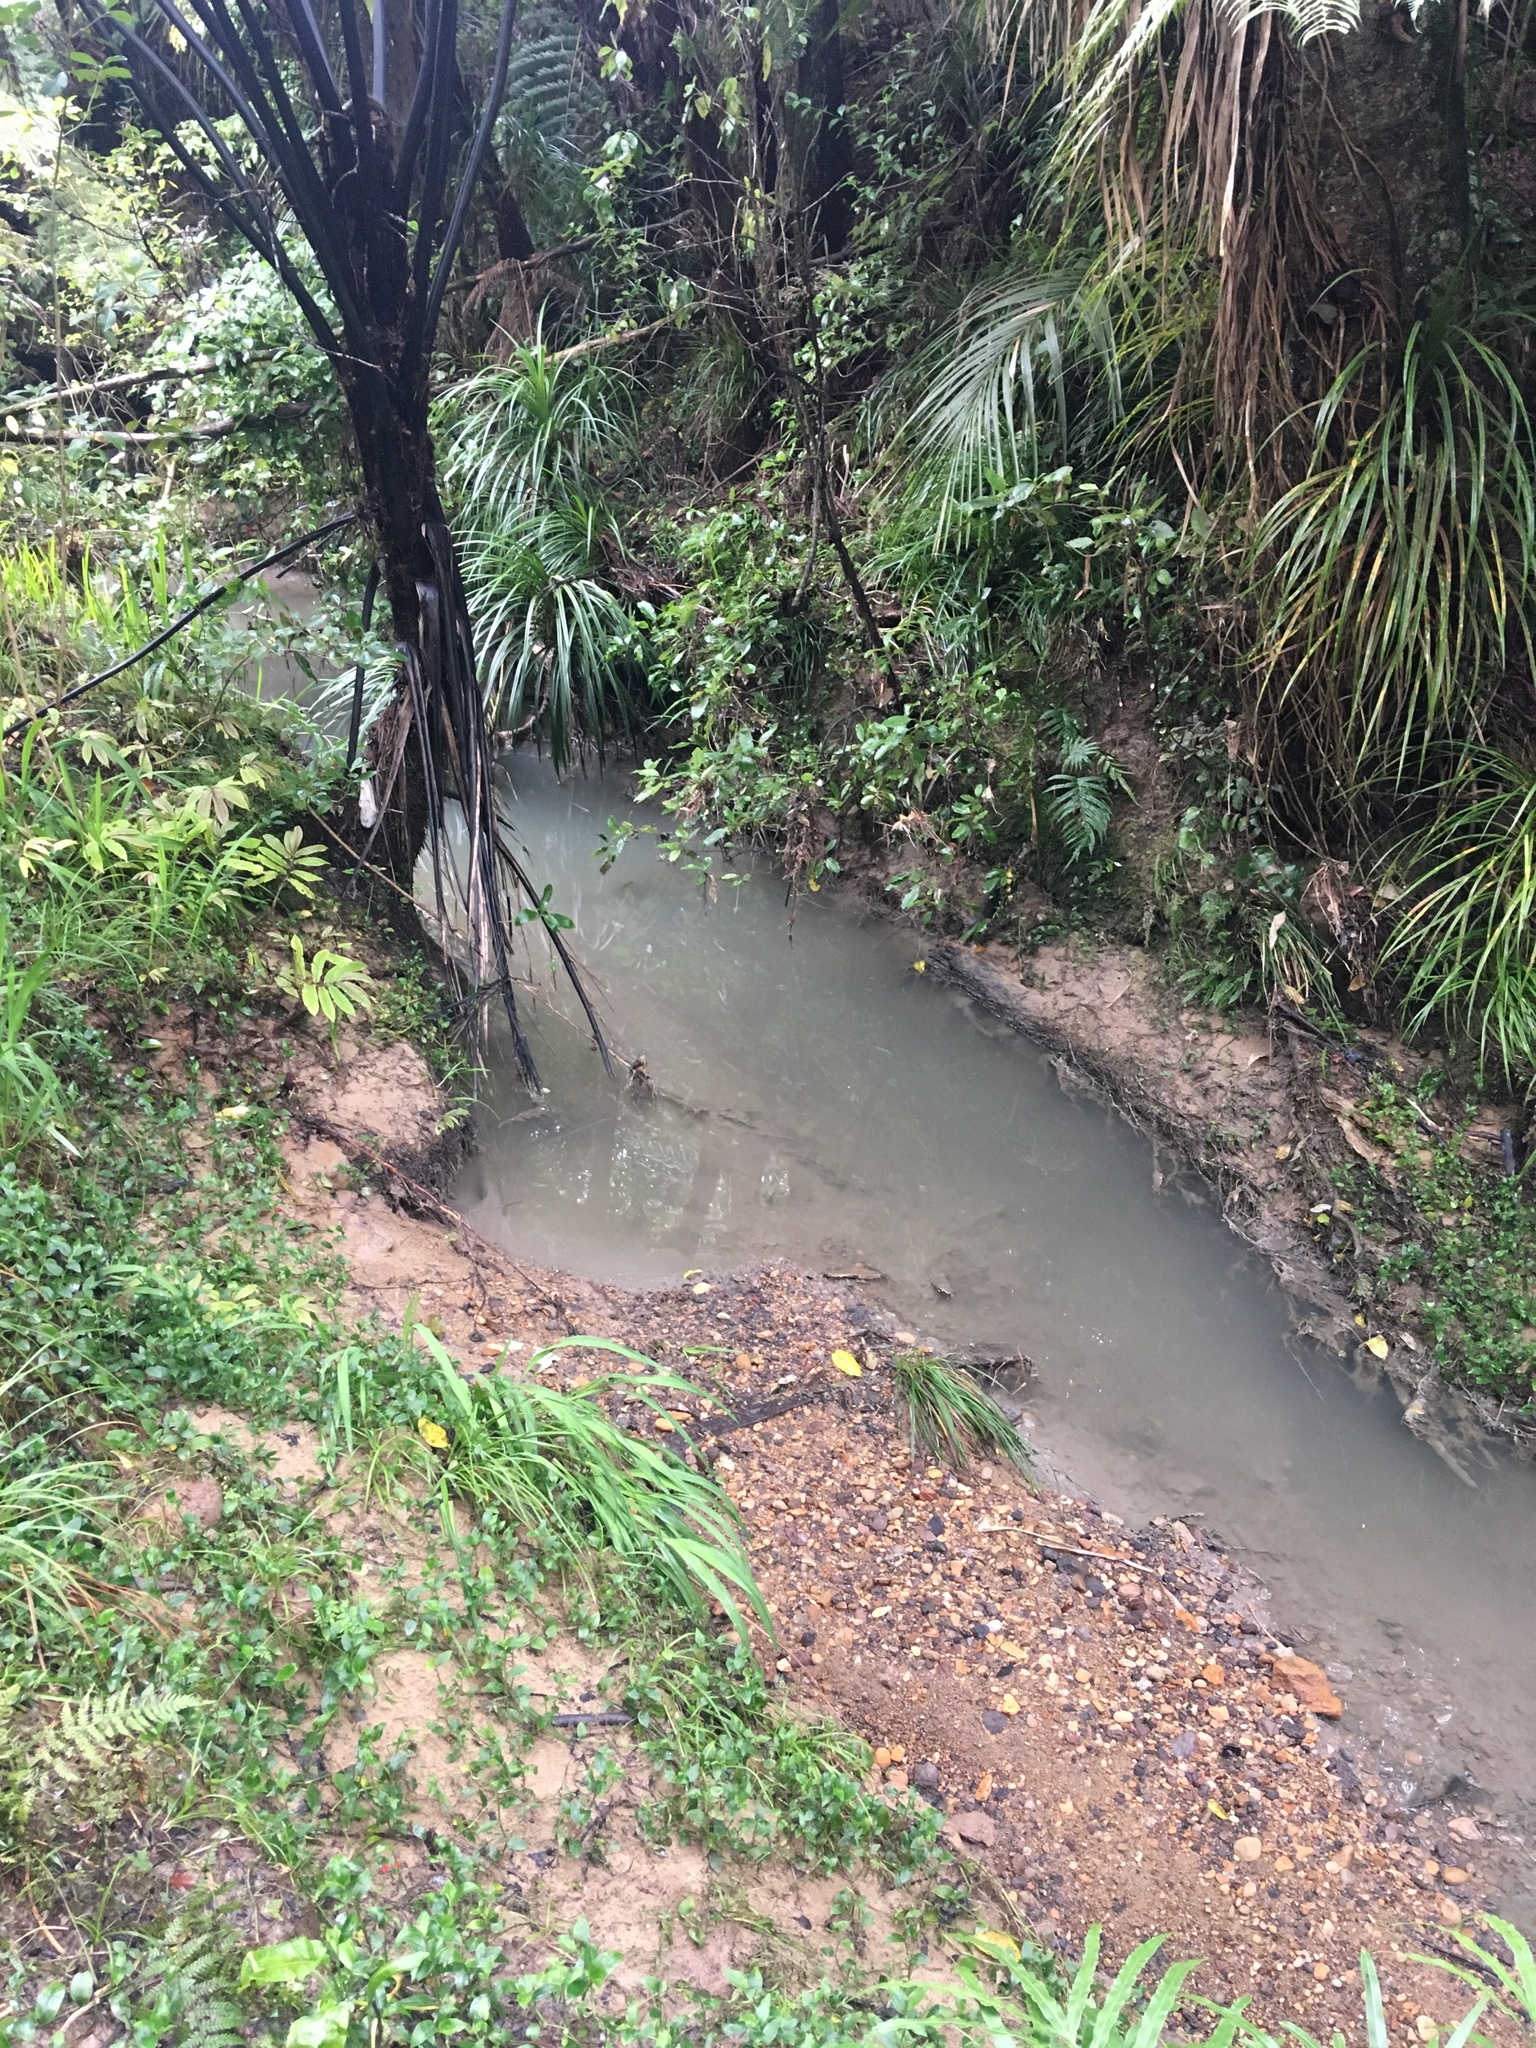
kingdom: Plantae
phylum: Tracheophyta
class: Polypodiopsida
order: Cyatheales
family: Cyatheaceae
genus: Sphaeropteris
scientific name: Sphaeropteris medullaris
